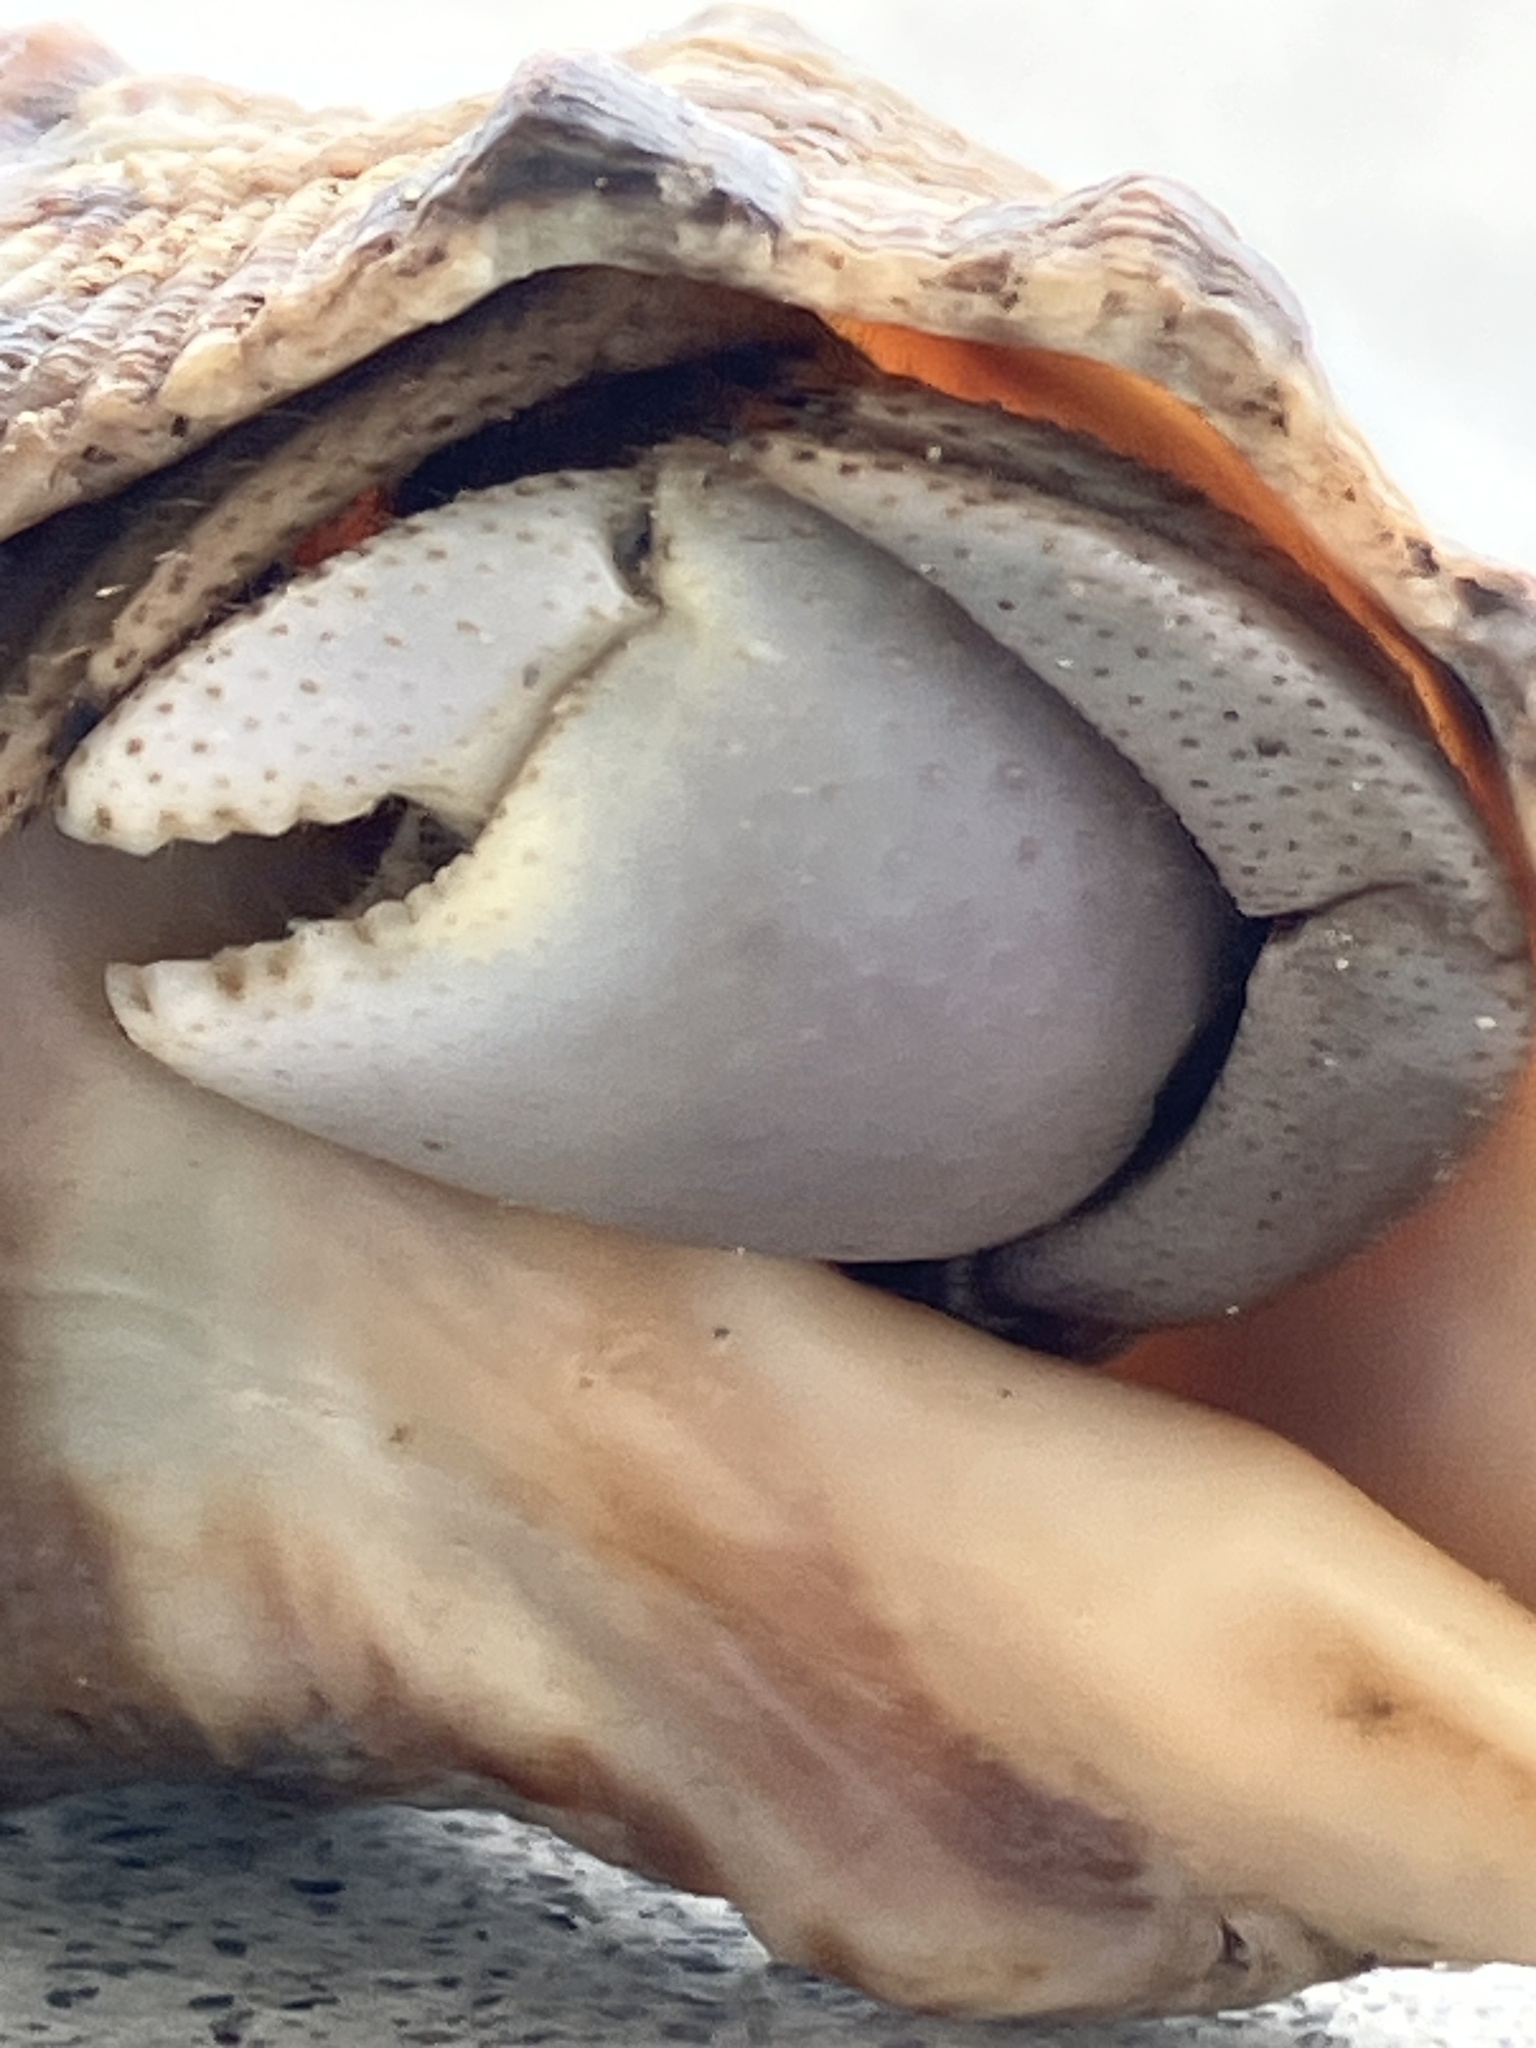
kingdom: Animalia
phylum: Arthropoda
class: Malacostraca
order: Decapoda
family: Coenobitidae
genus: Coenobita
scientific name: Coenobita brevimanus
